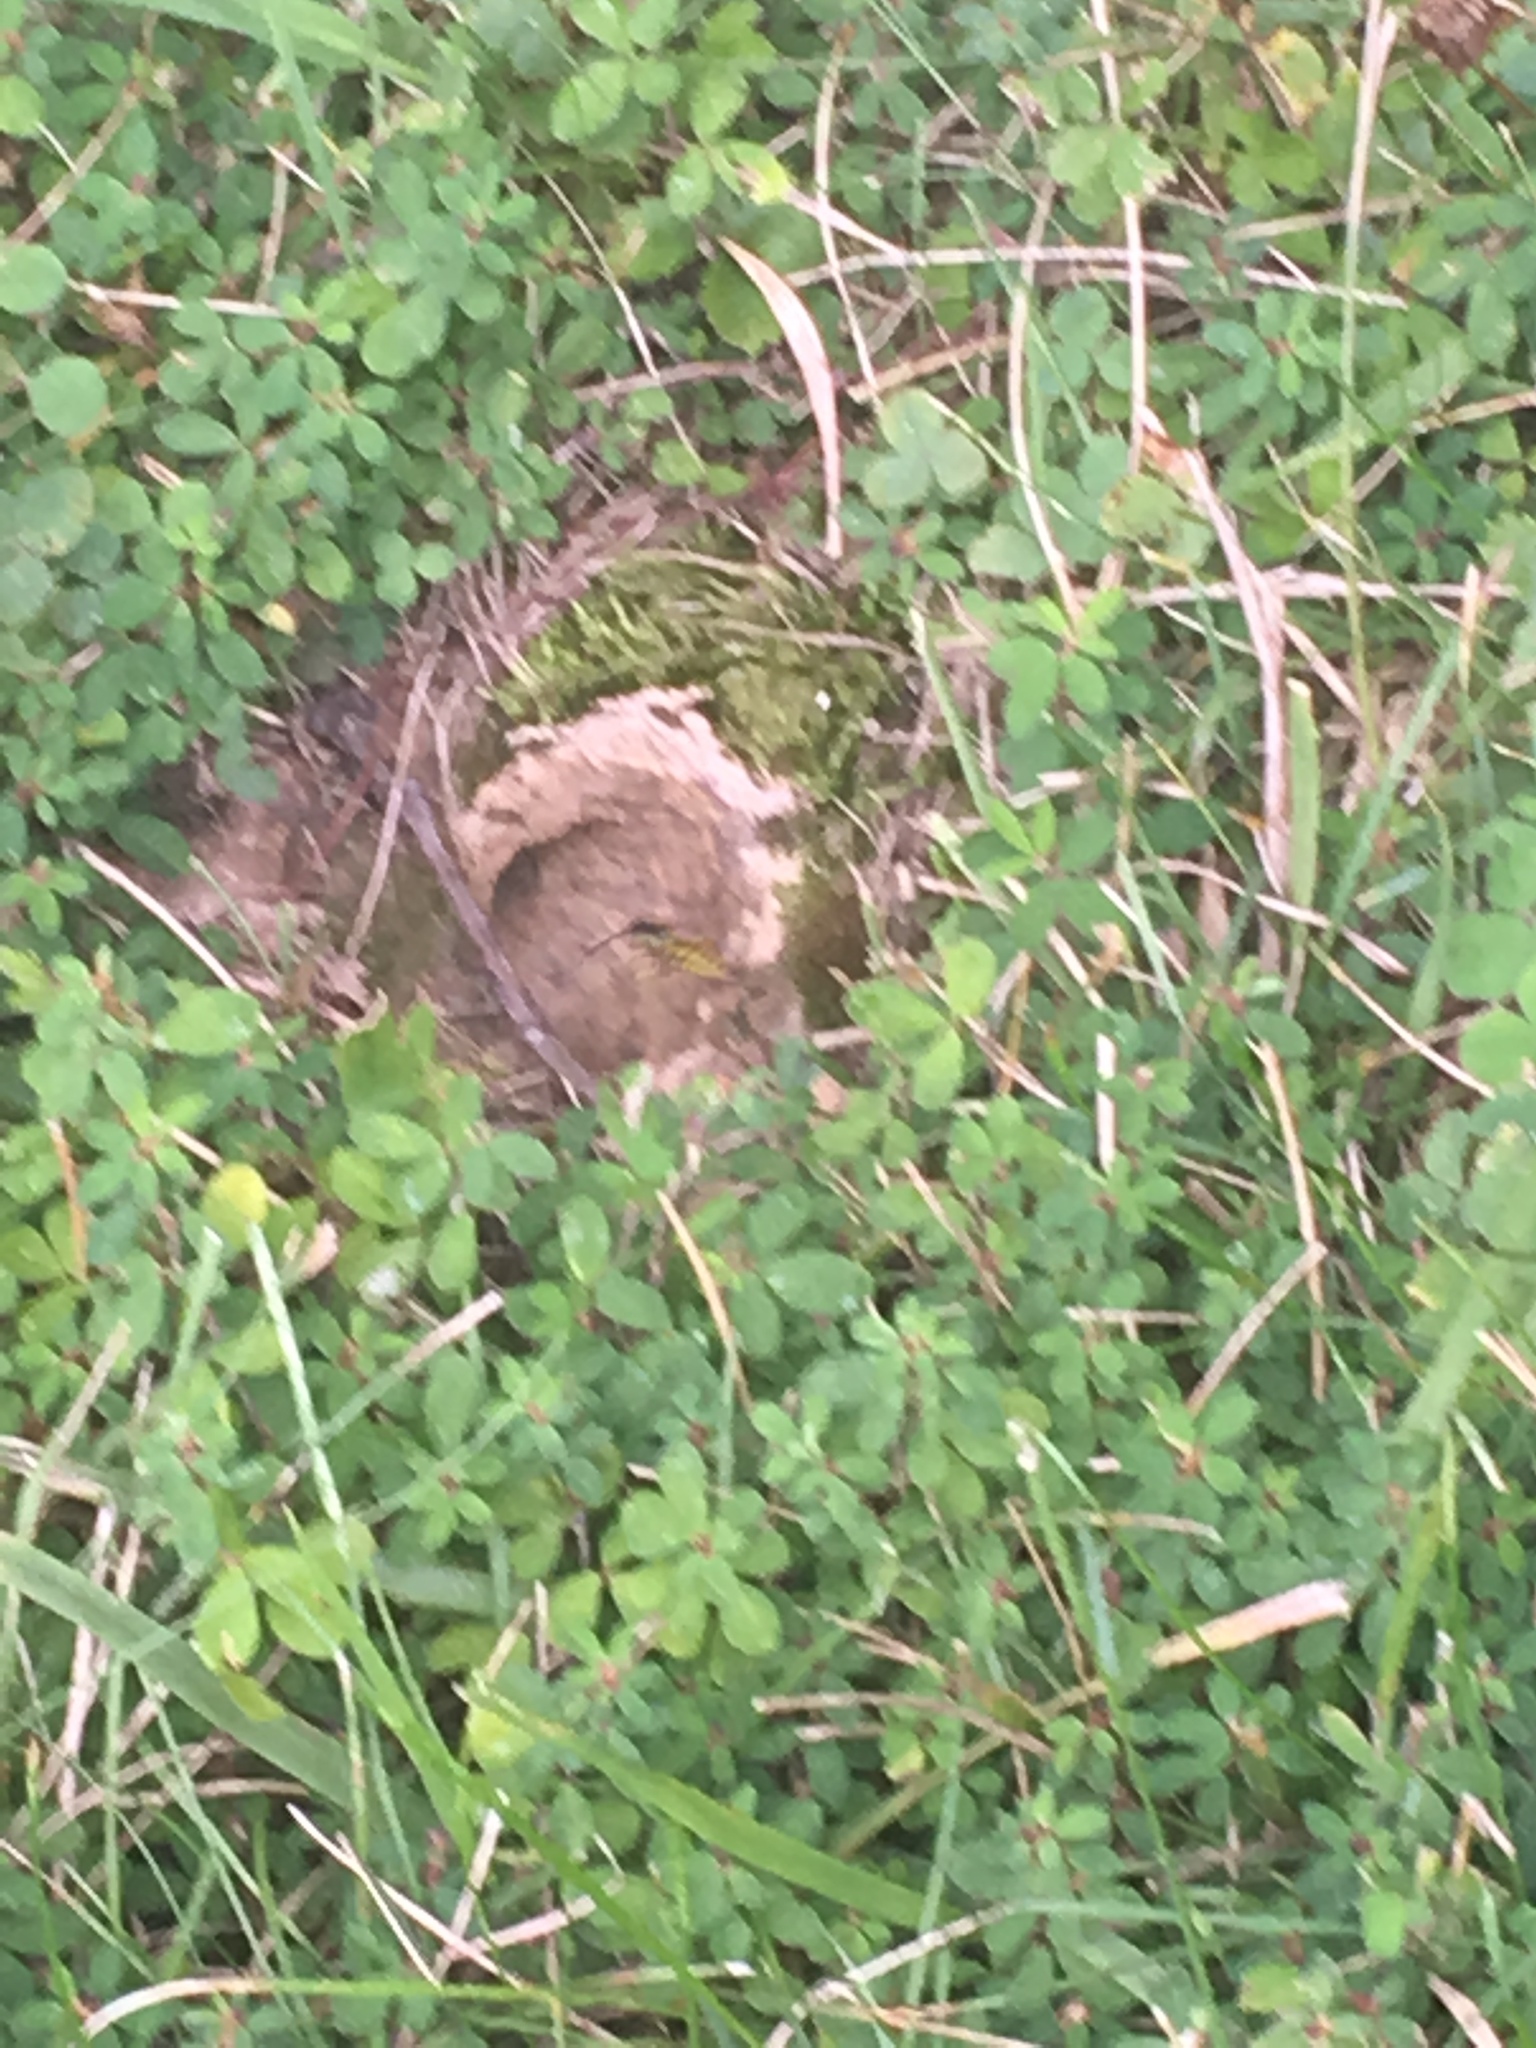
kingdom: Animalia
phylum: Arthropoda
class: Insecta
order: Hymenoptera
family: Vespidae
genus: Vespula
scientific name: Vespula
